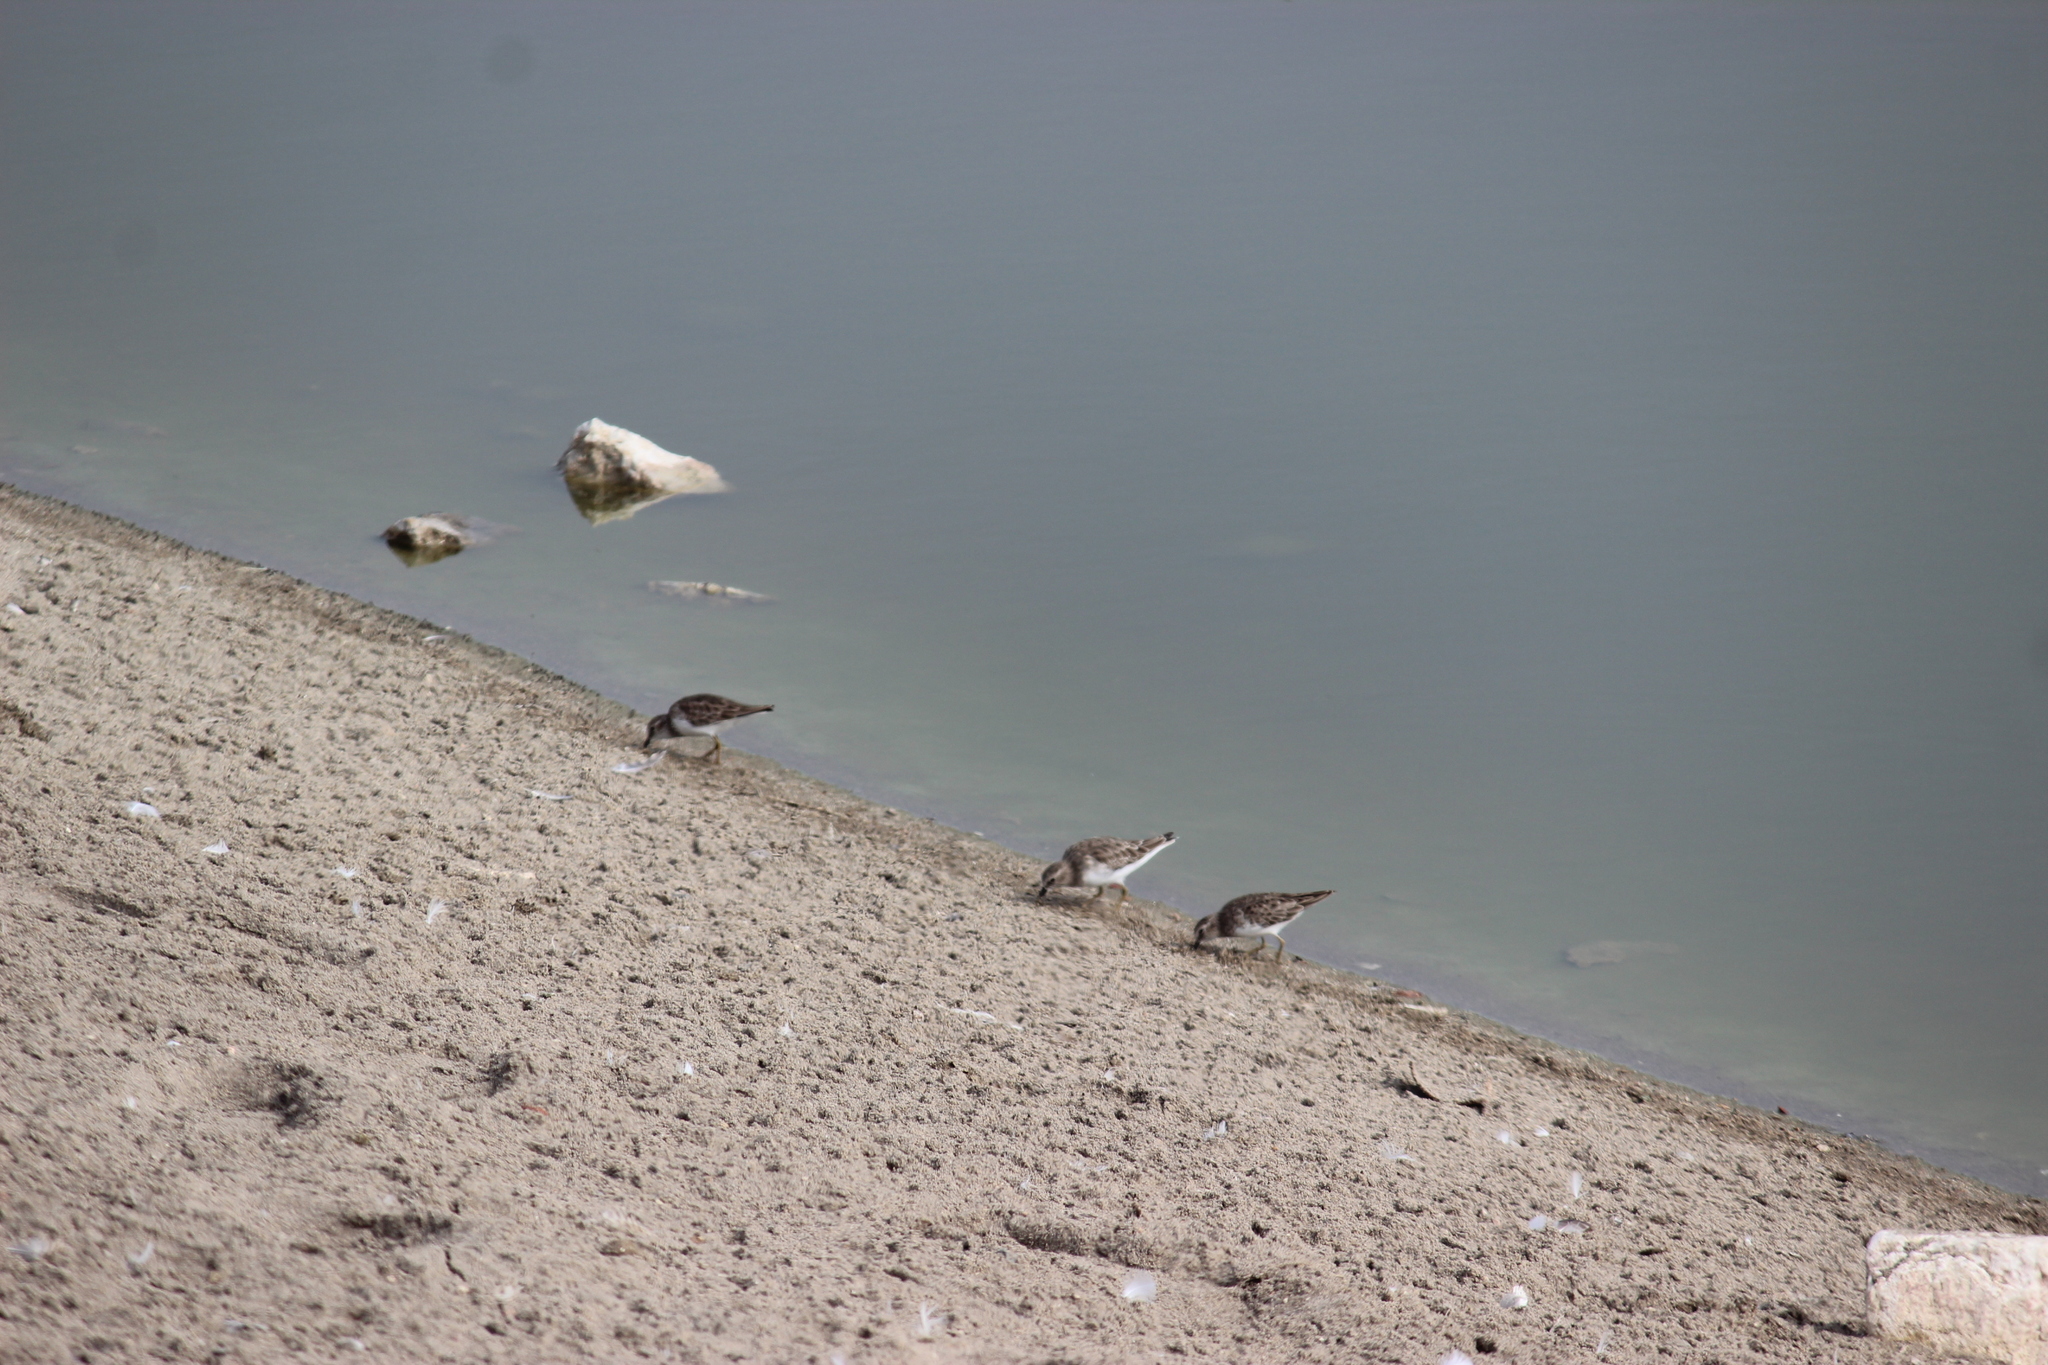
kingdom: Animalia
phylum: Chordata
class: Aves
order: Charadriiformes
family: Scolopacidae
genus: Calidris
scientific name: Calidris minutilla
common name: Least sandpiper
